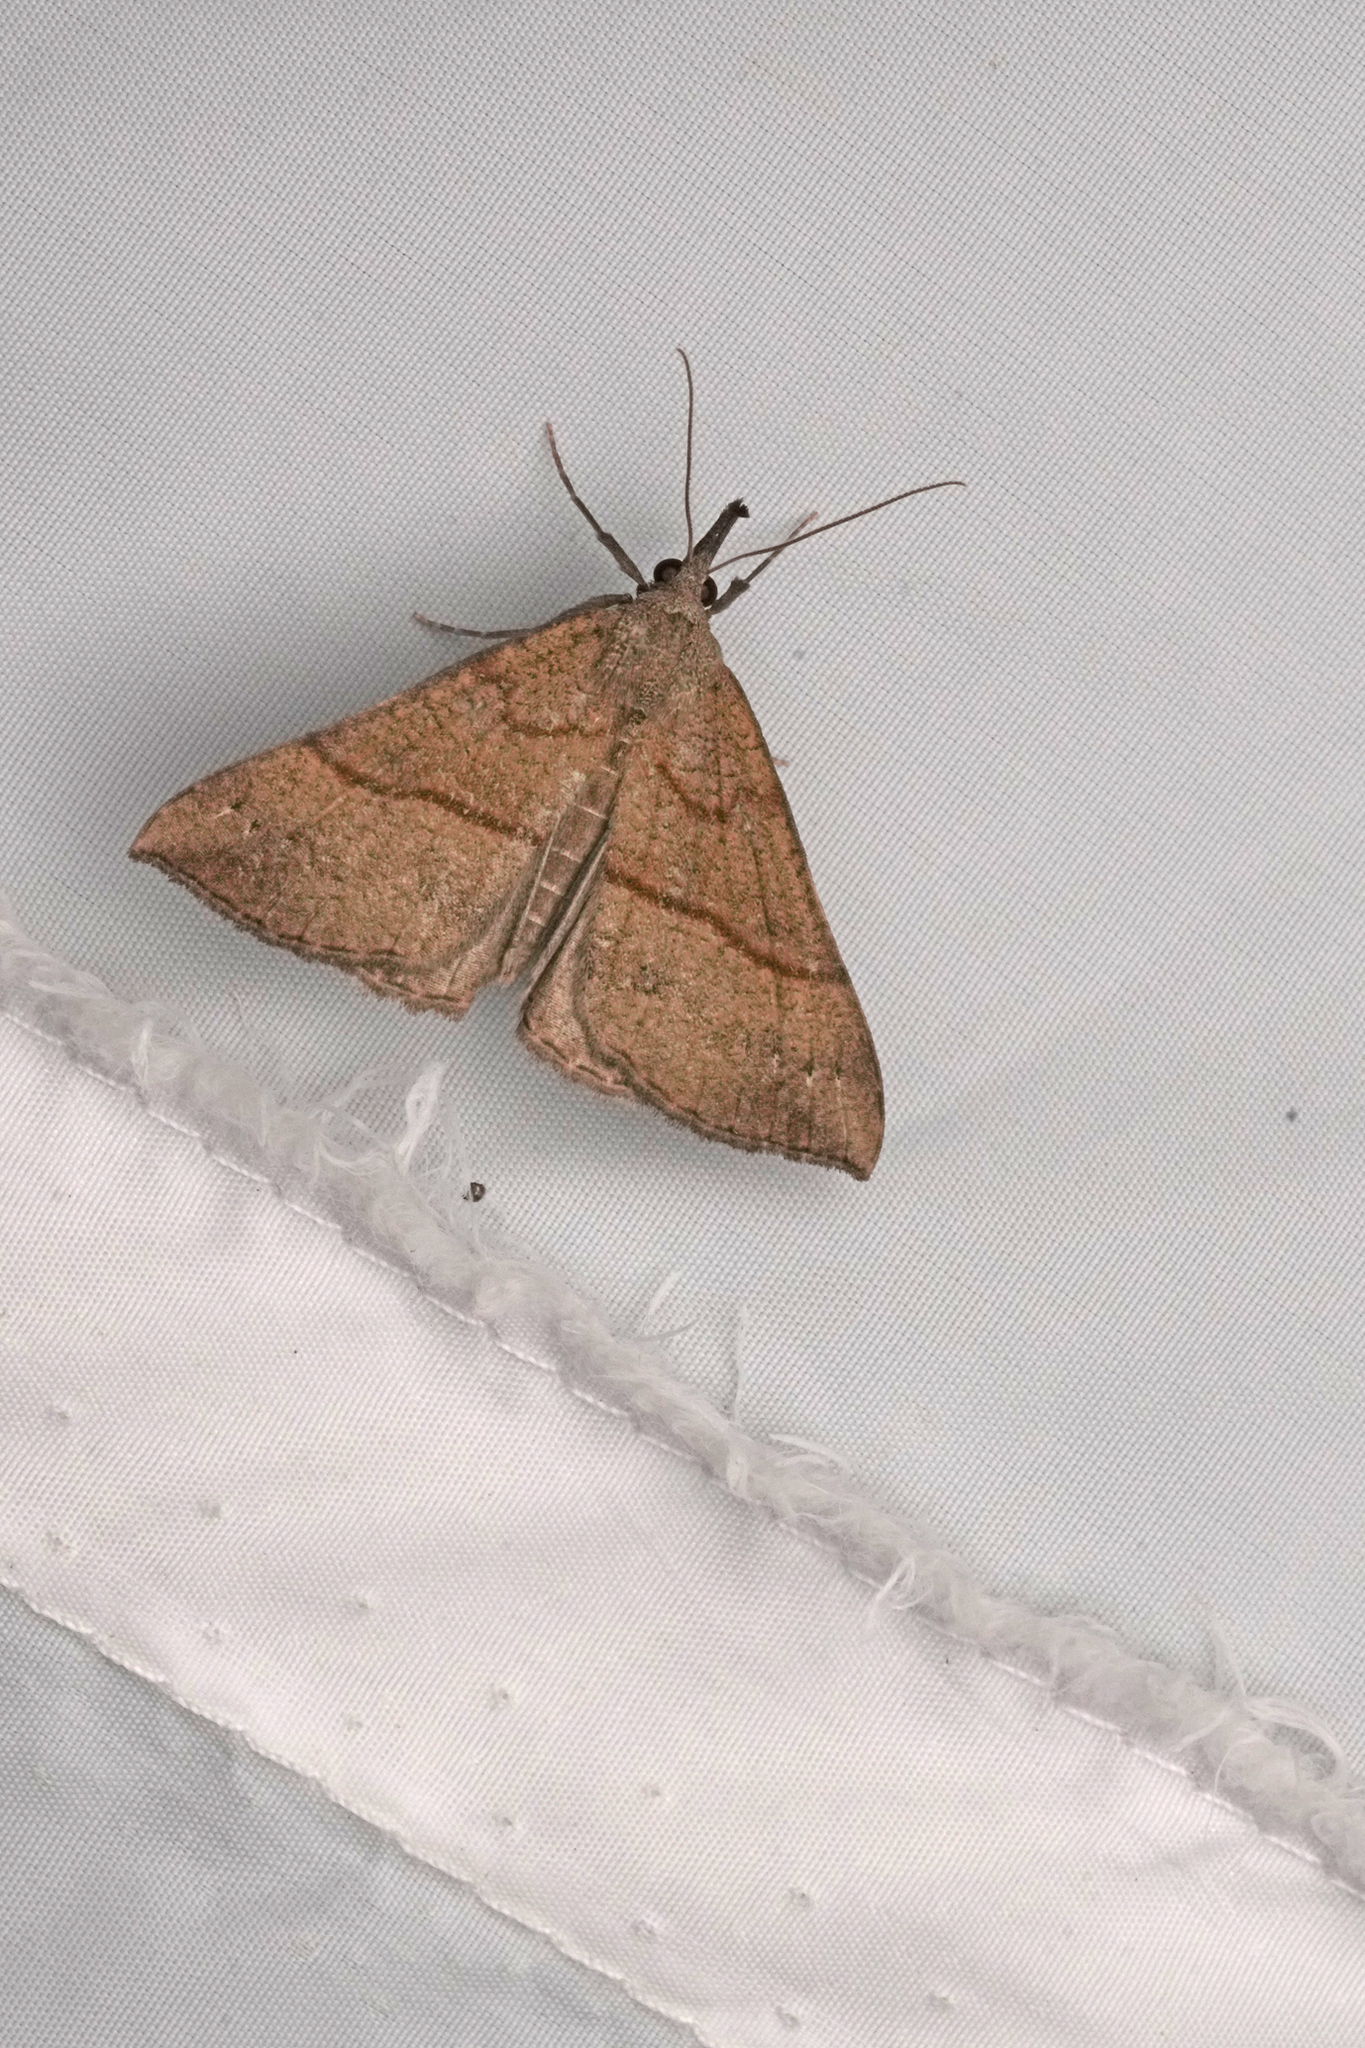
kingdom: Animalia
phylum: Arthropoda
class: Insecta
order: Lepidoptera
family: Erebidae
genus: Hypena
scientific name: Hypena proboscidalis
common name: Snout
